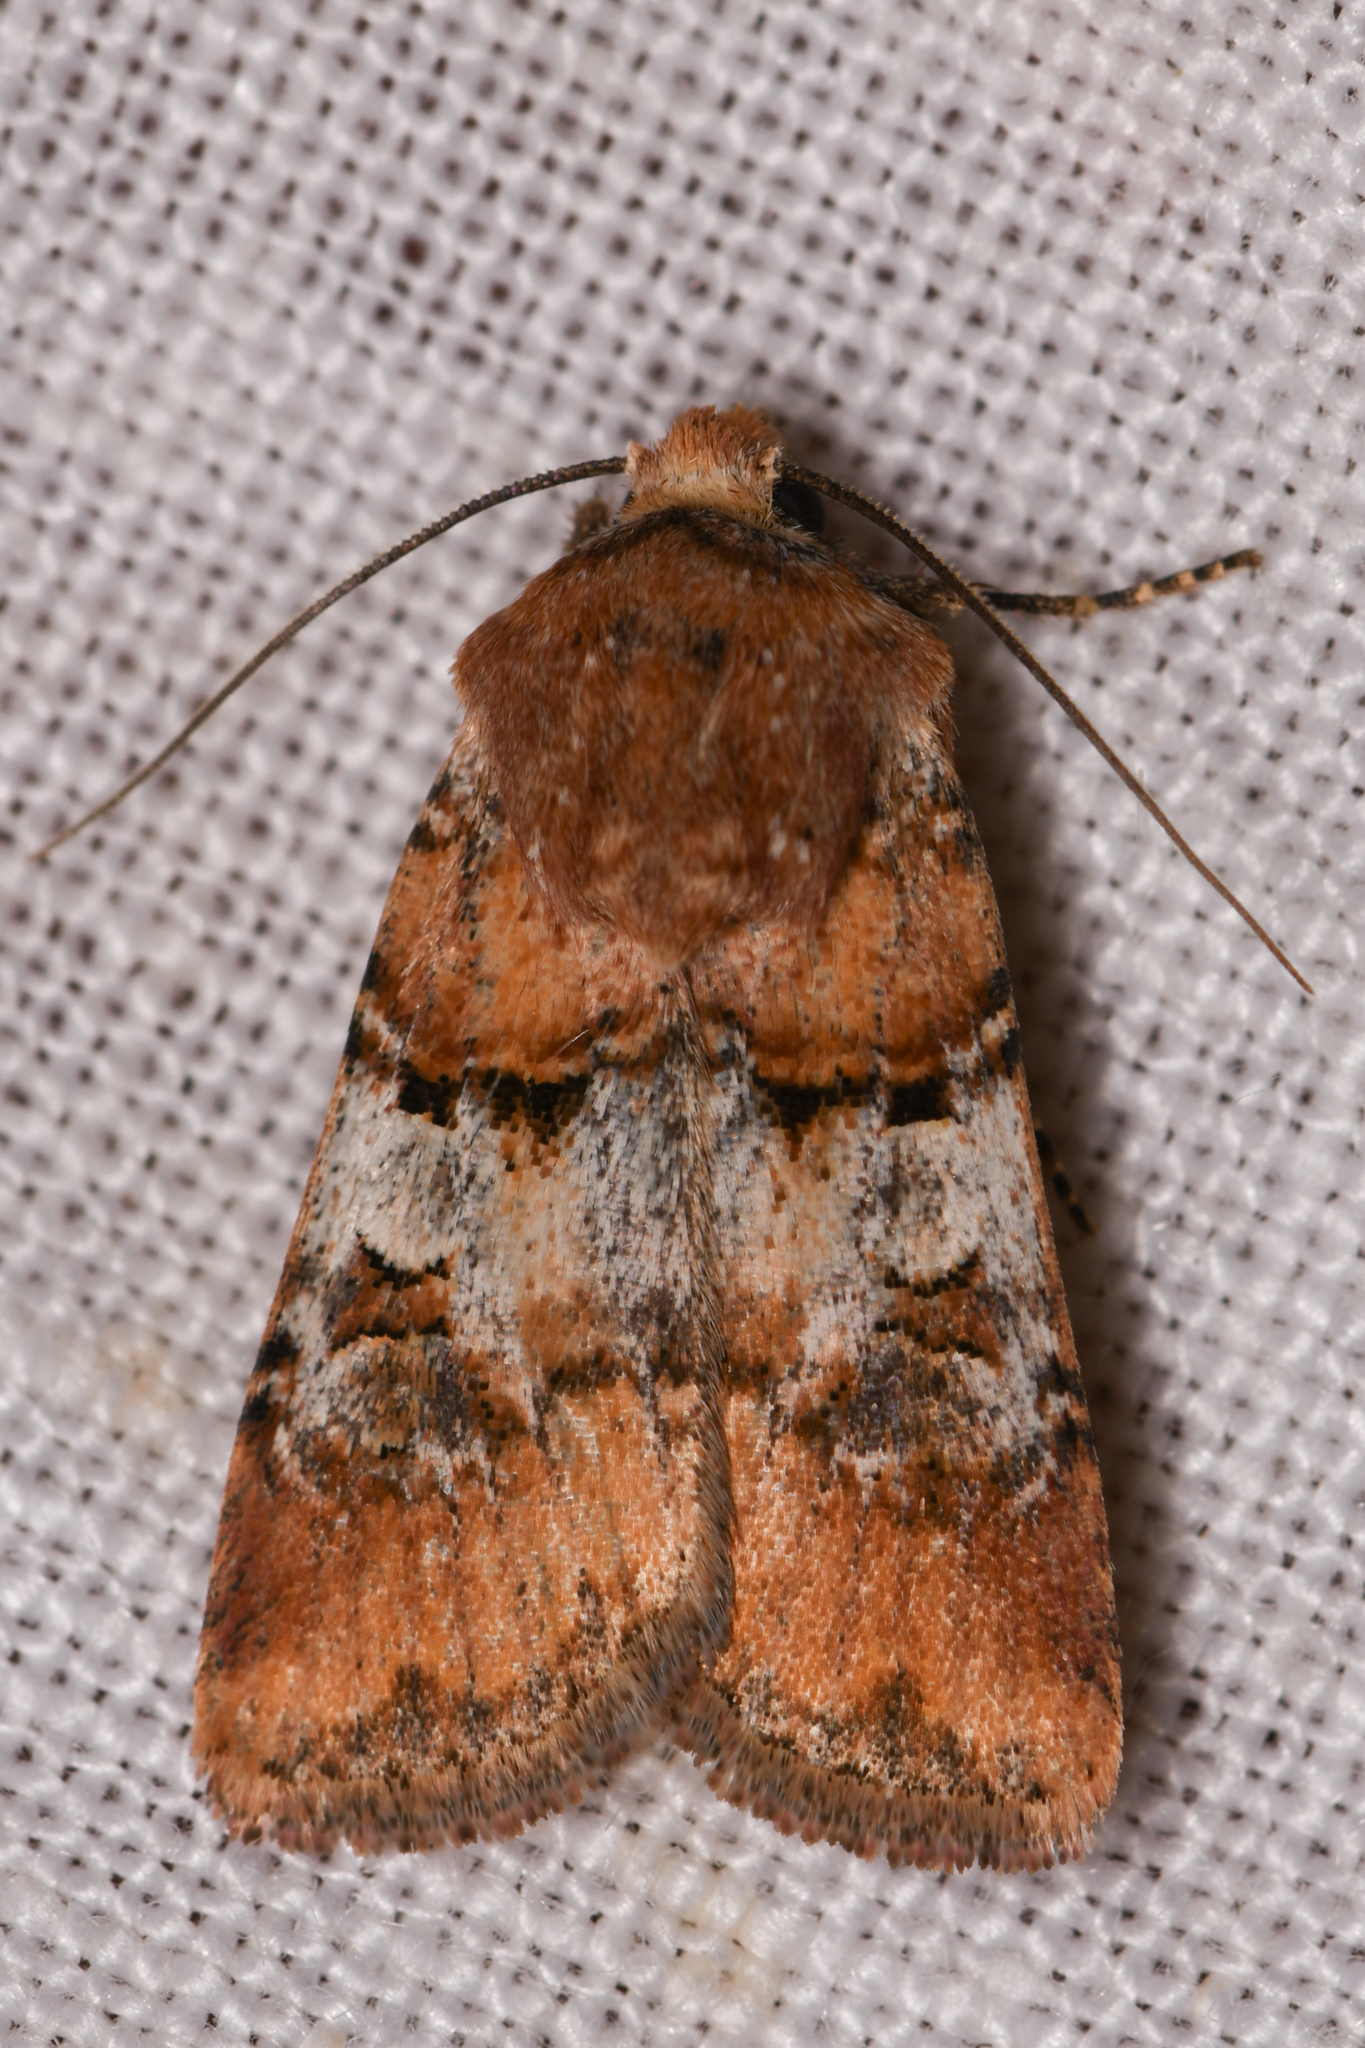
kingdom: Animalia
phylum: Arthropoda
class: Insecta
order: Lepidoptera
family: Noctuidae
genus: Euxoa
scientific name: Euxoa murdocki
